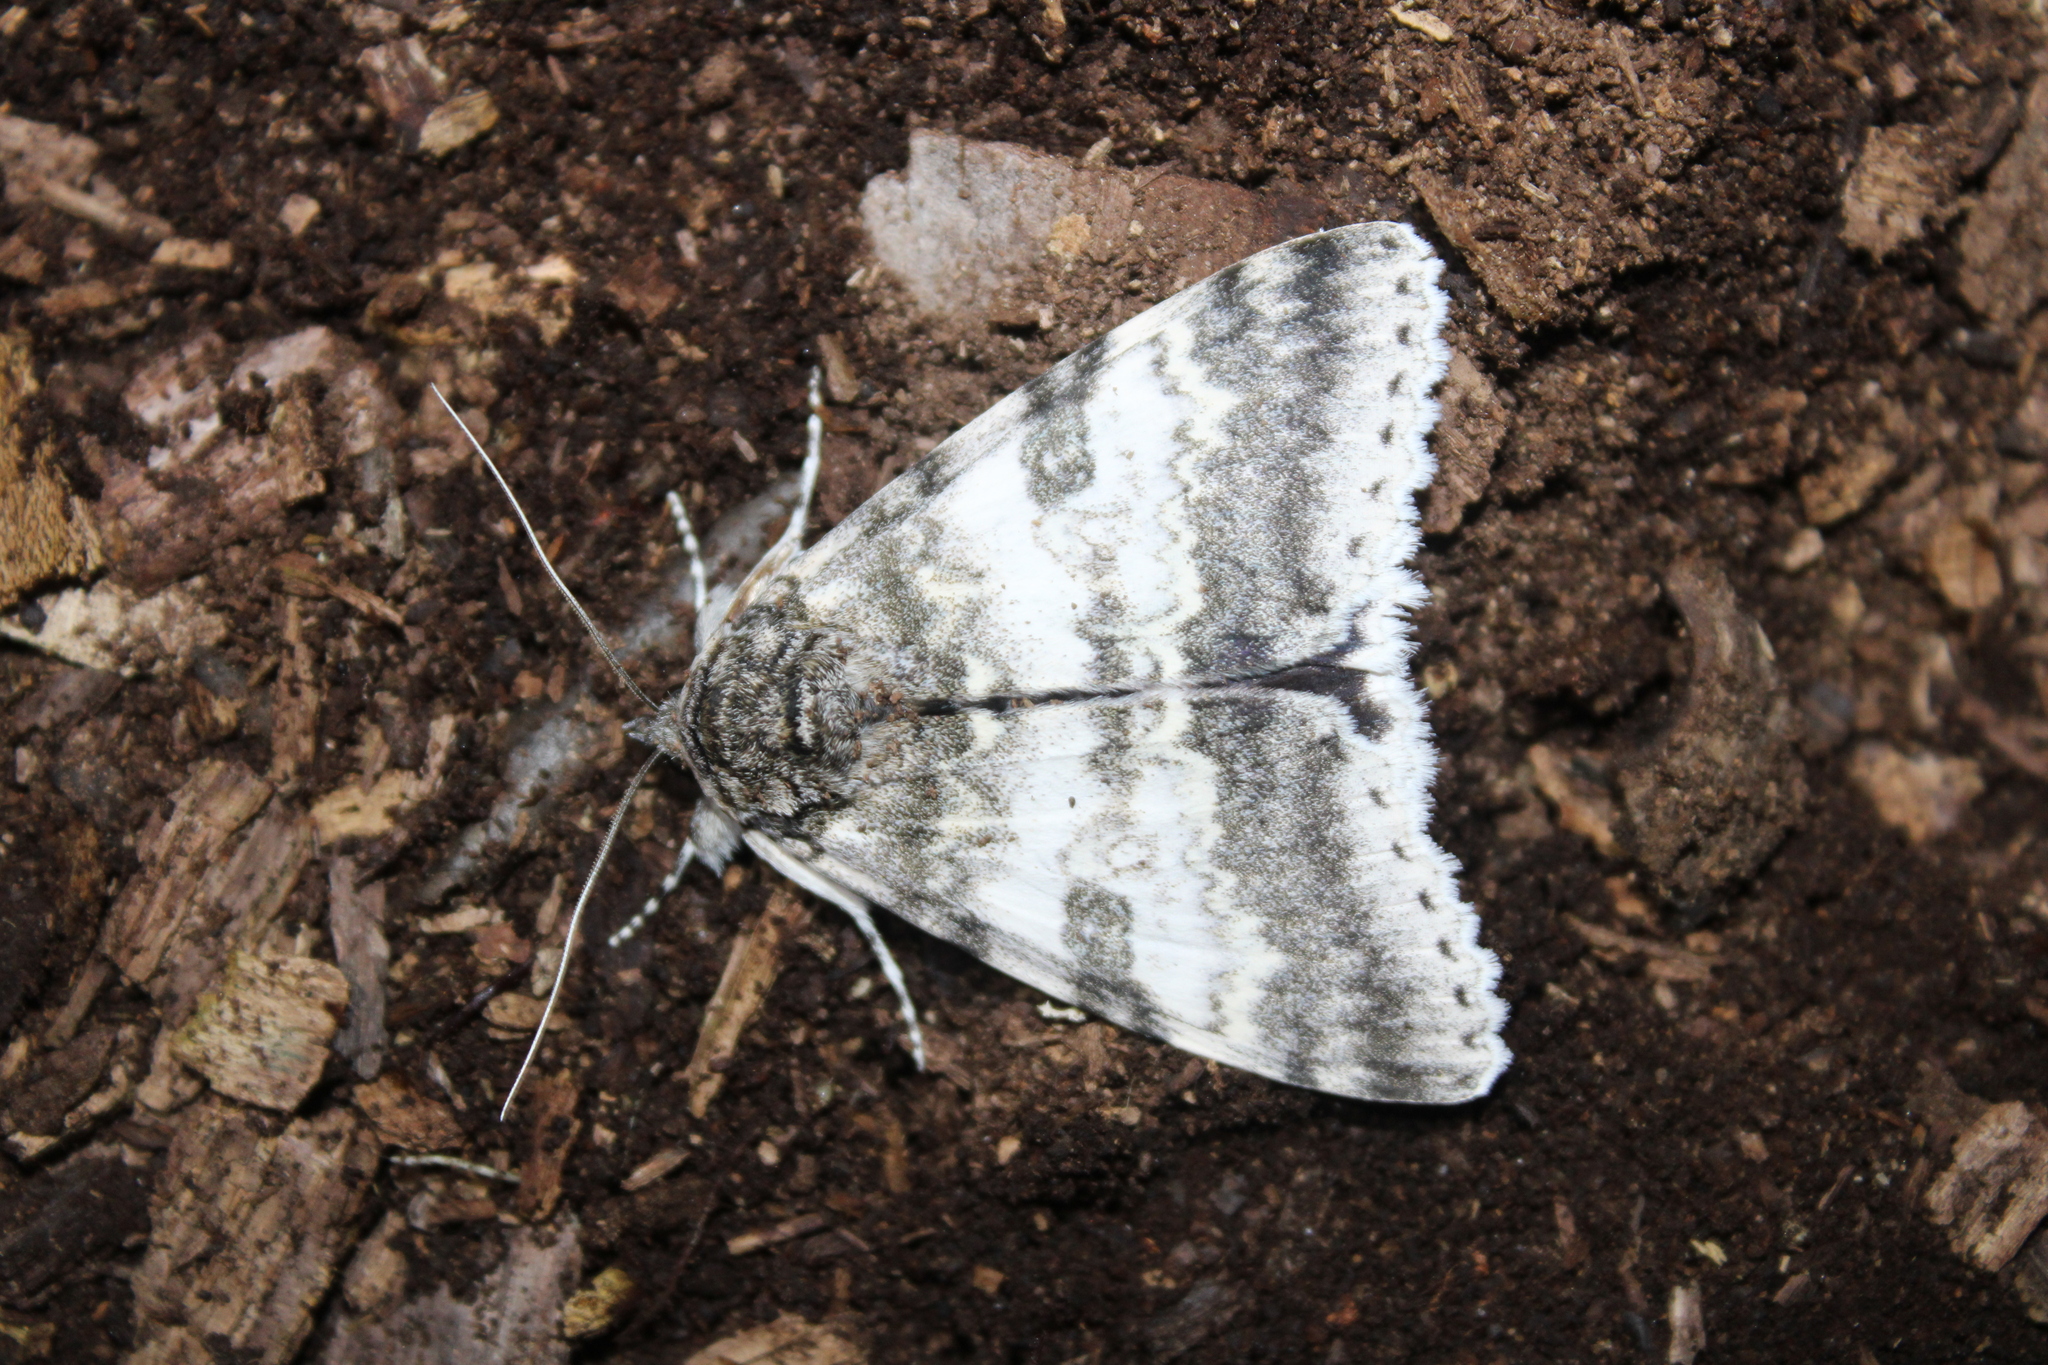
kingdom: Animalia
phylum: Arthropoda
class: Insecta
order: Lepidoptera
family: Erebidae
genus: Catocala
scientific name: Catocala relicta
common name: White underwing
